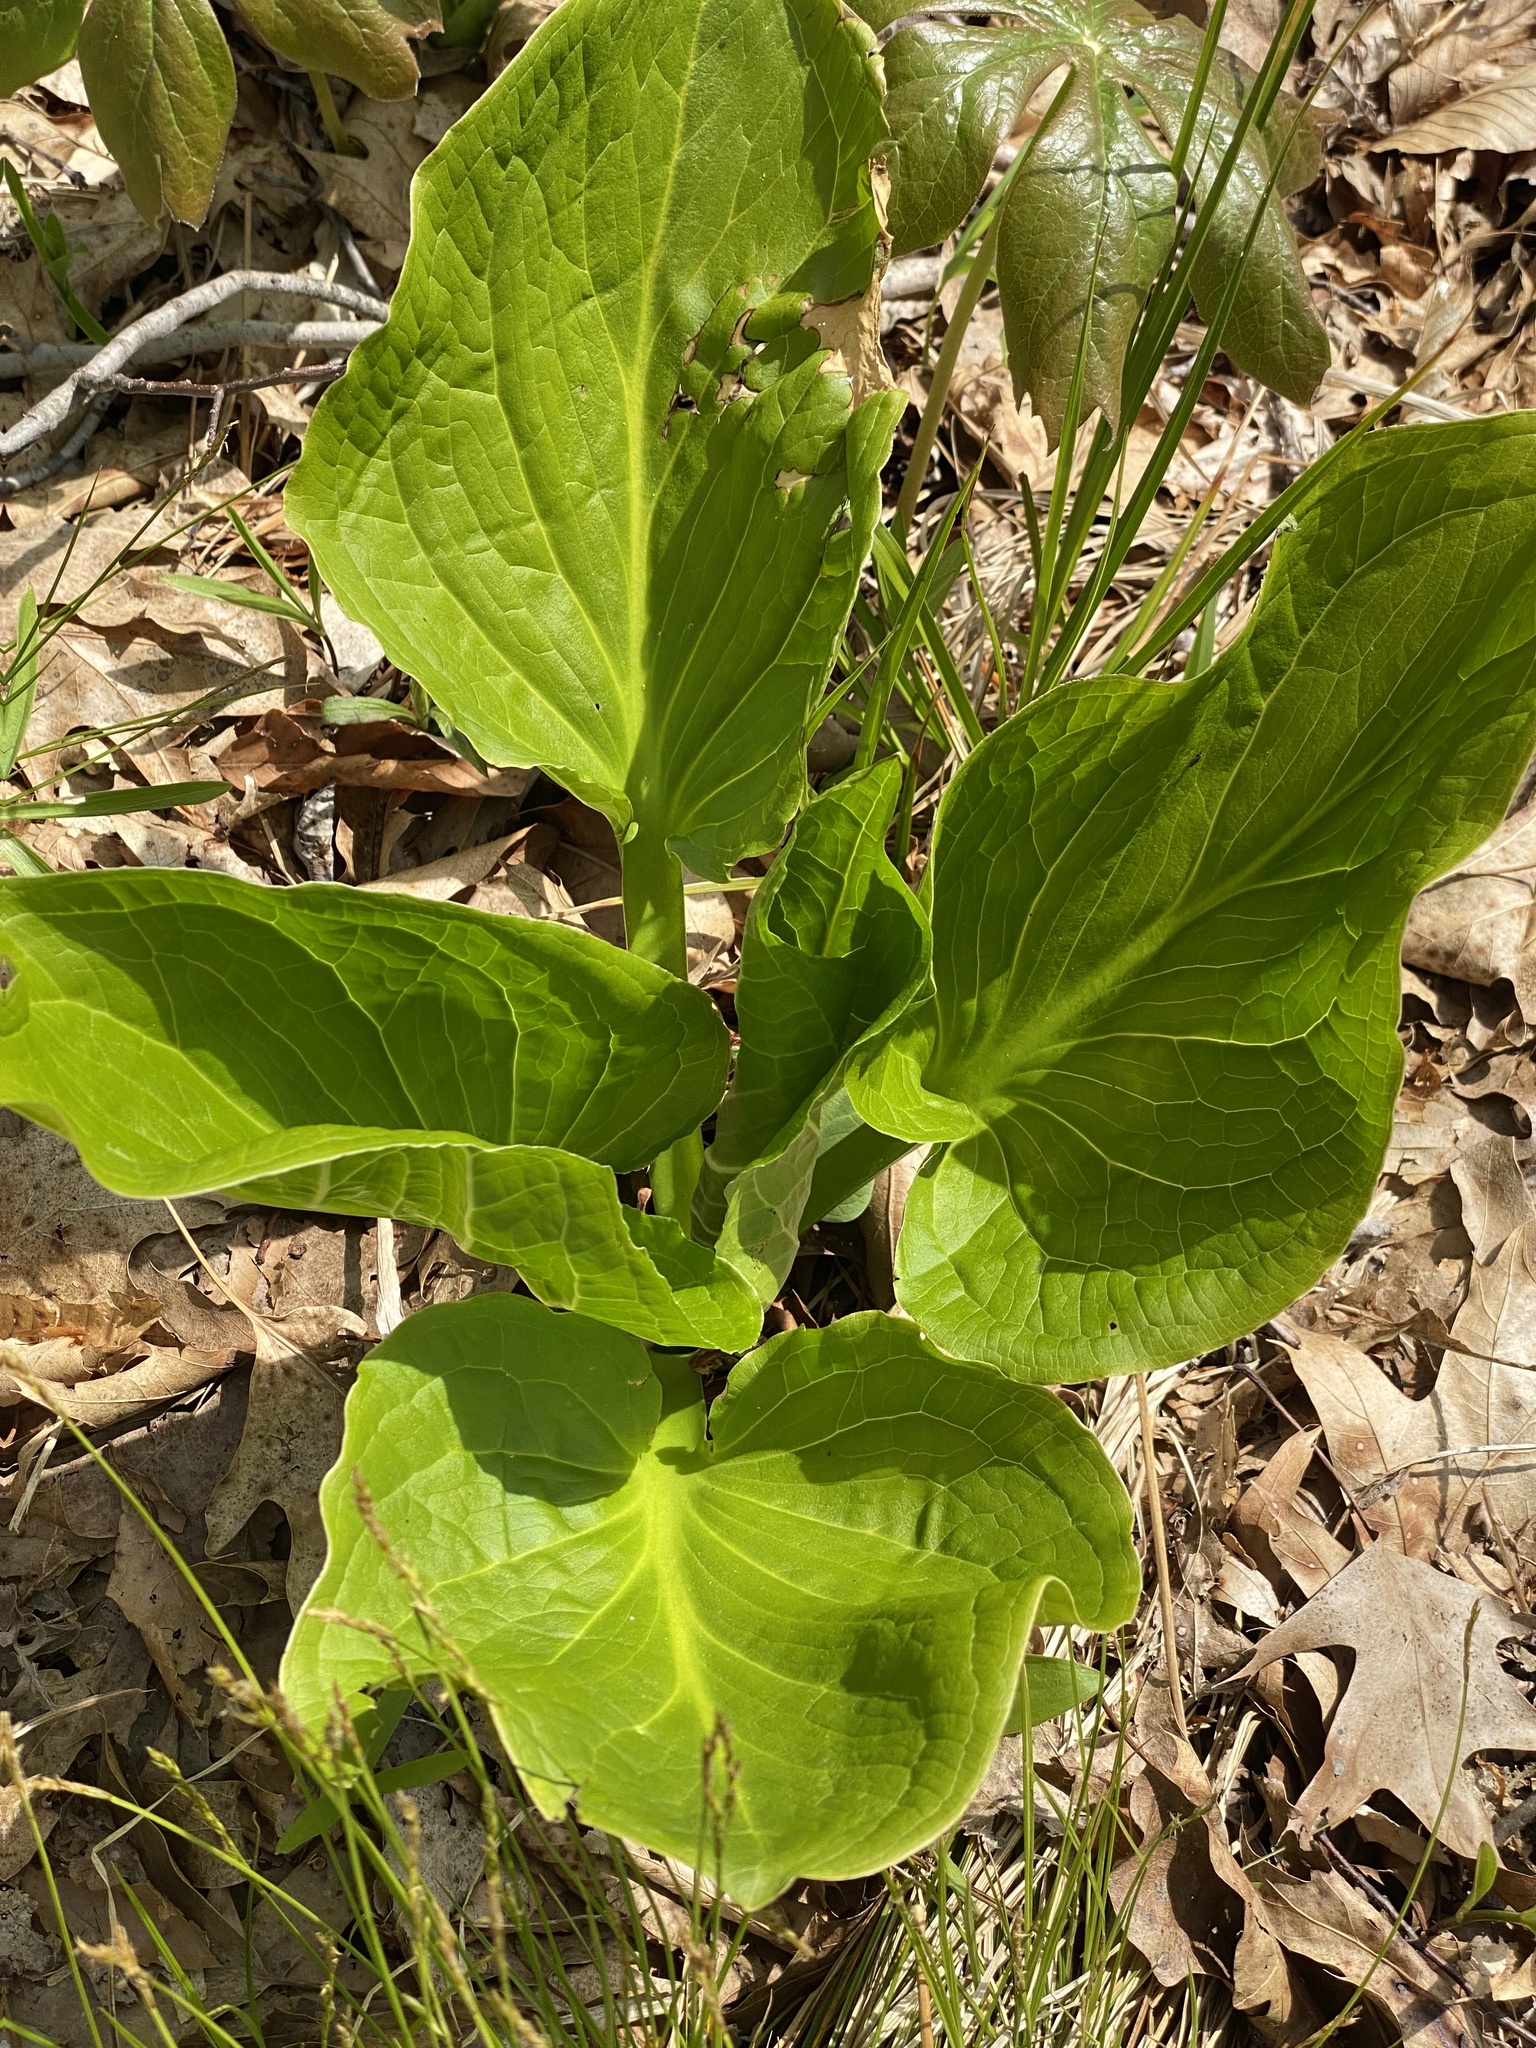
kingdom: Plantae
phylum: Tracheophyta
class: Liliopsida
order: Alismatales
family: Araceae
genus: Symplocarpus
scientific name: Symplocarpus foetidus
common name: Eastern skunk cabbage
